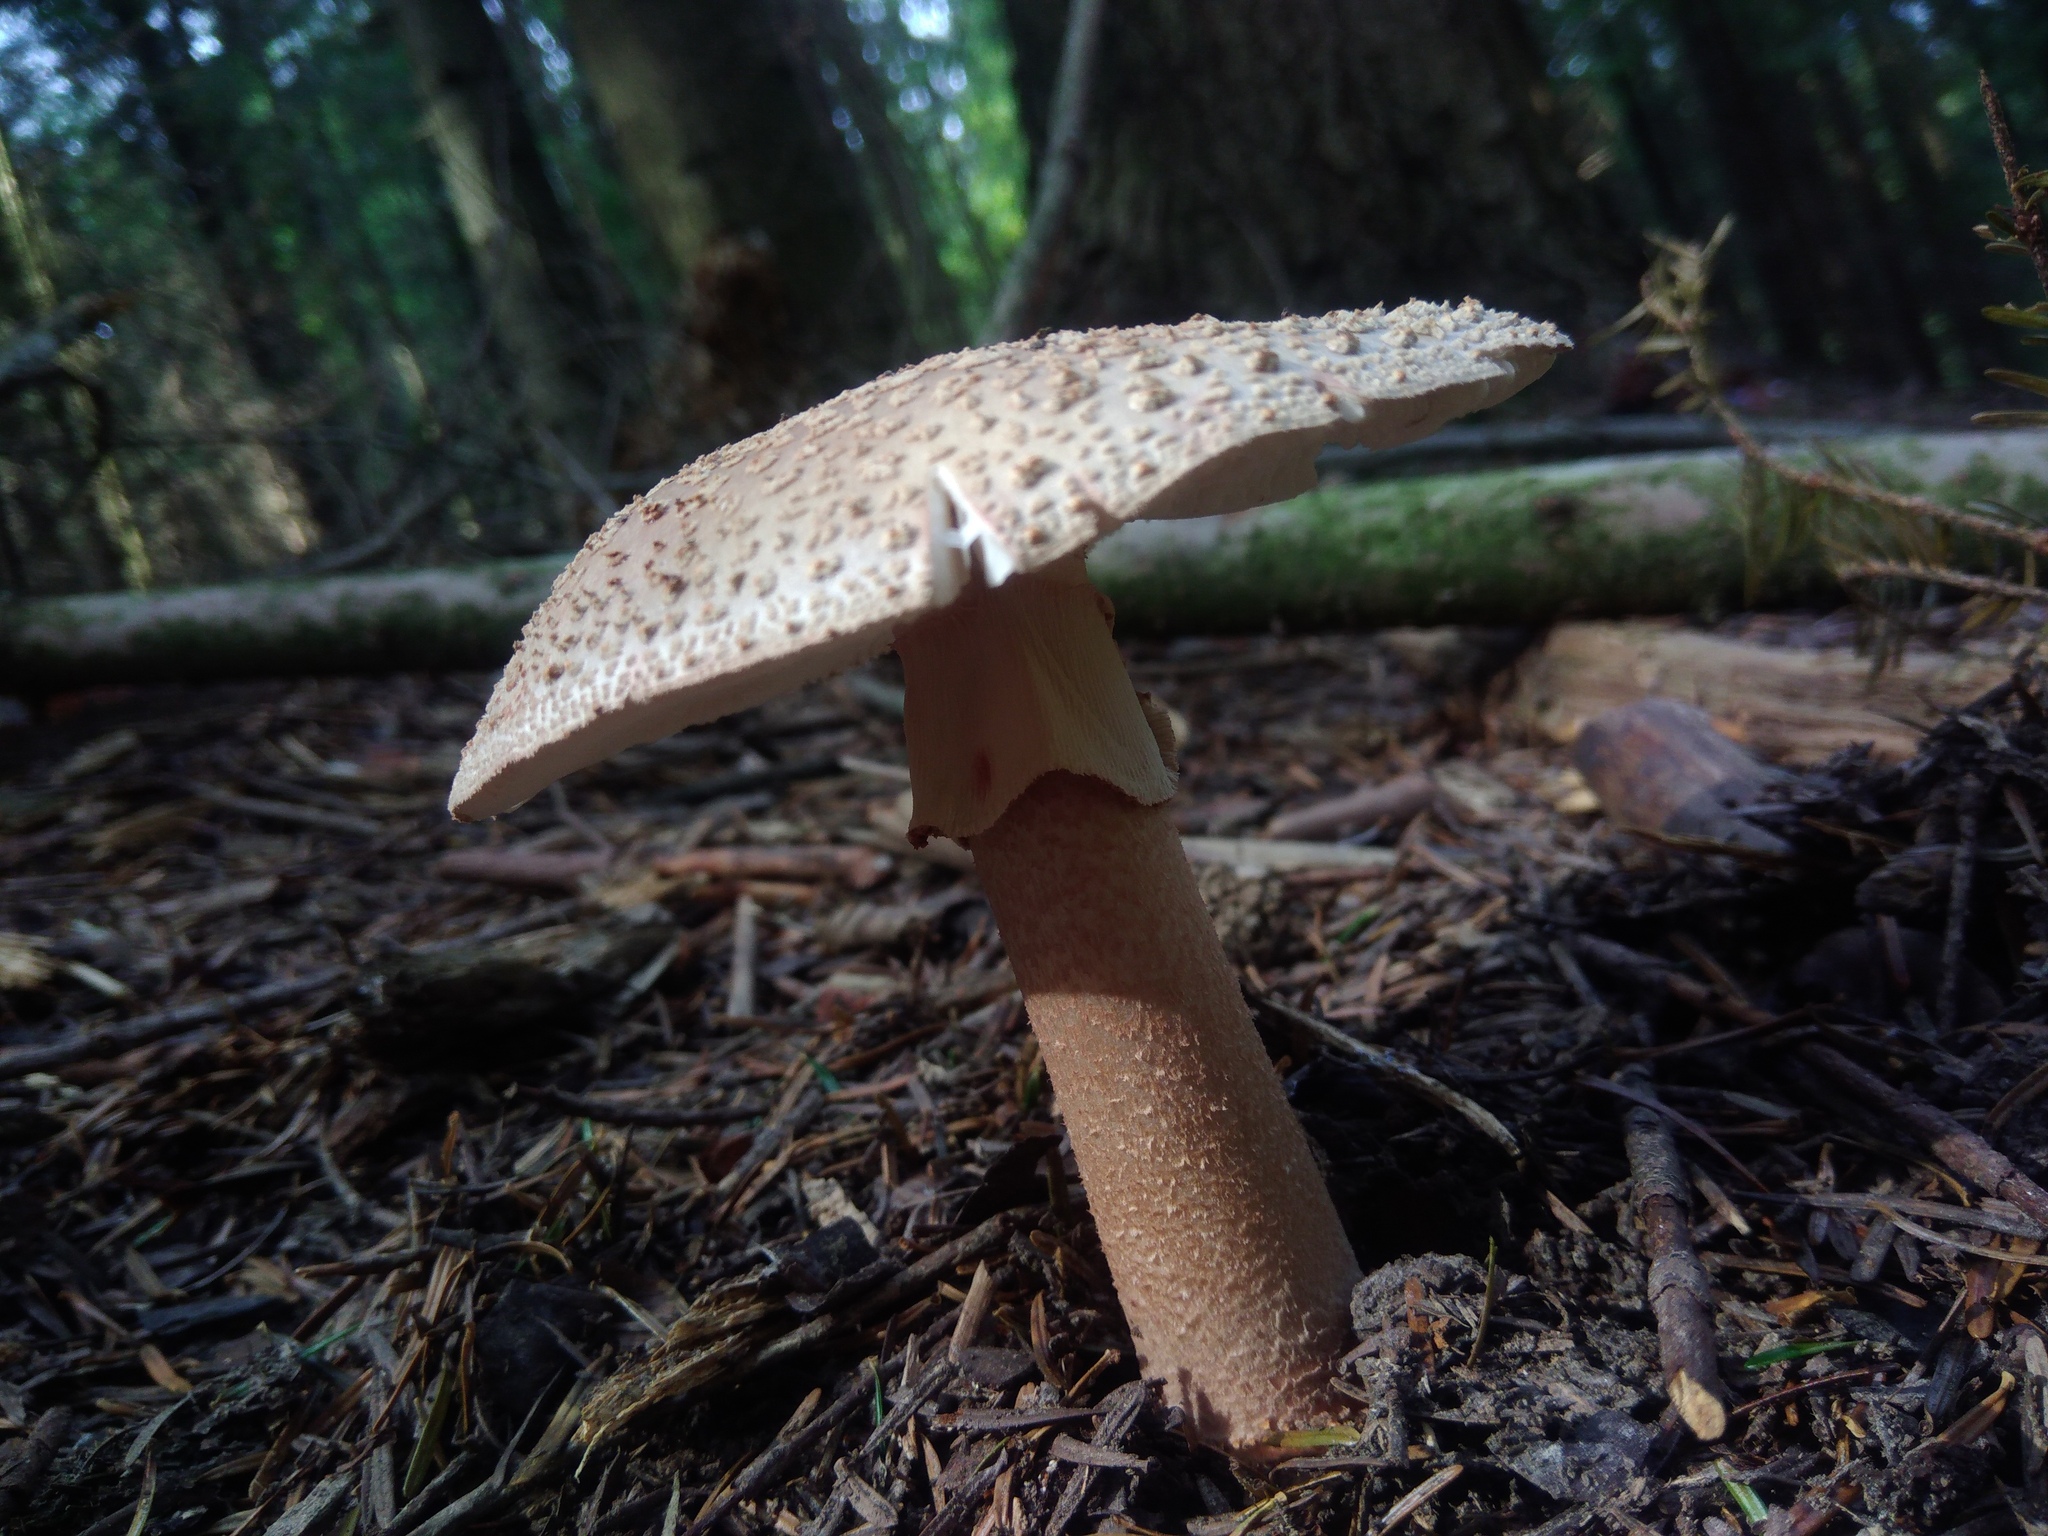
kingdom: Fungi
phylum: Basidiomycota
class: Agaricomycetes
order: Agaricales
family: Amanitaceae
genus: Amanita
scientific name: Amanita rubescens
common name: Blusher
